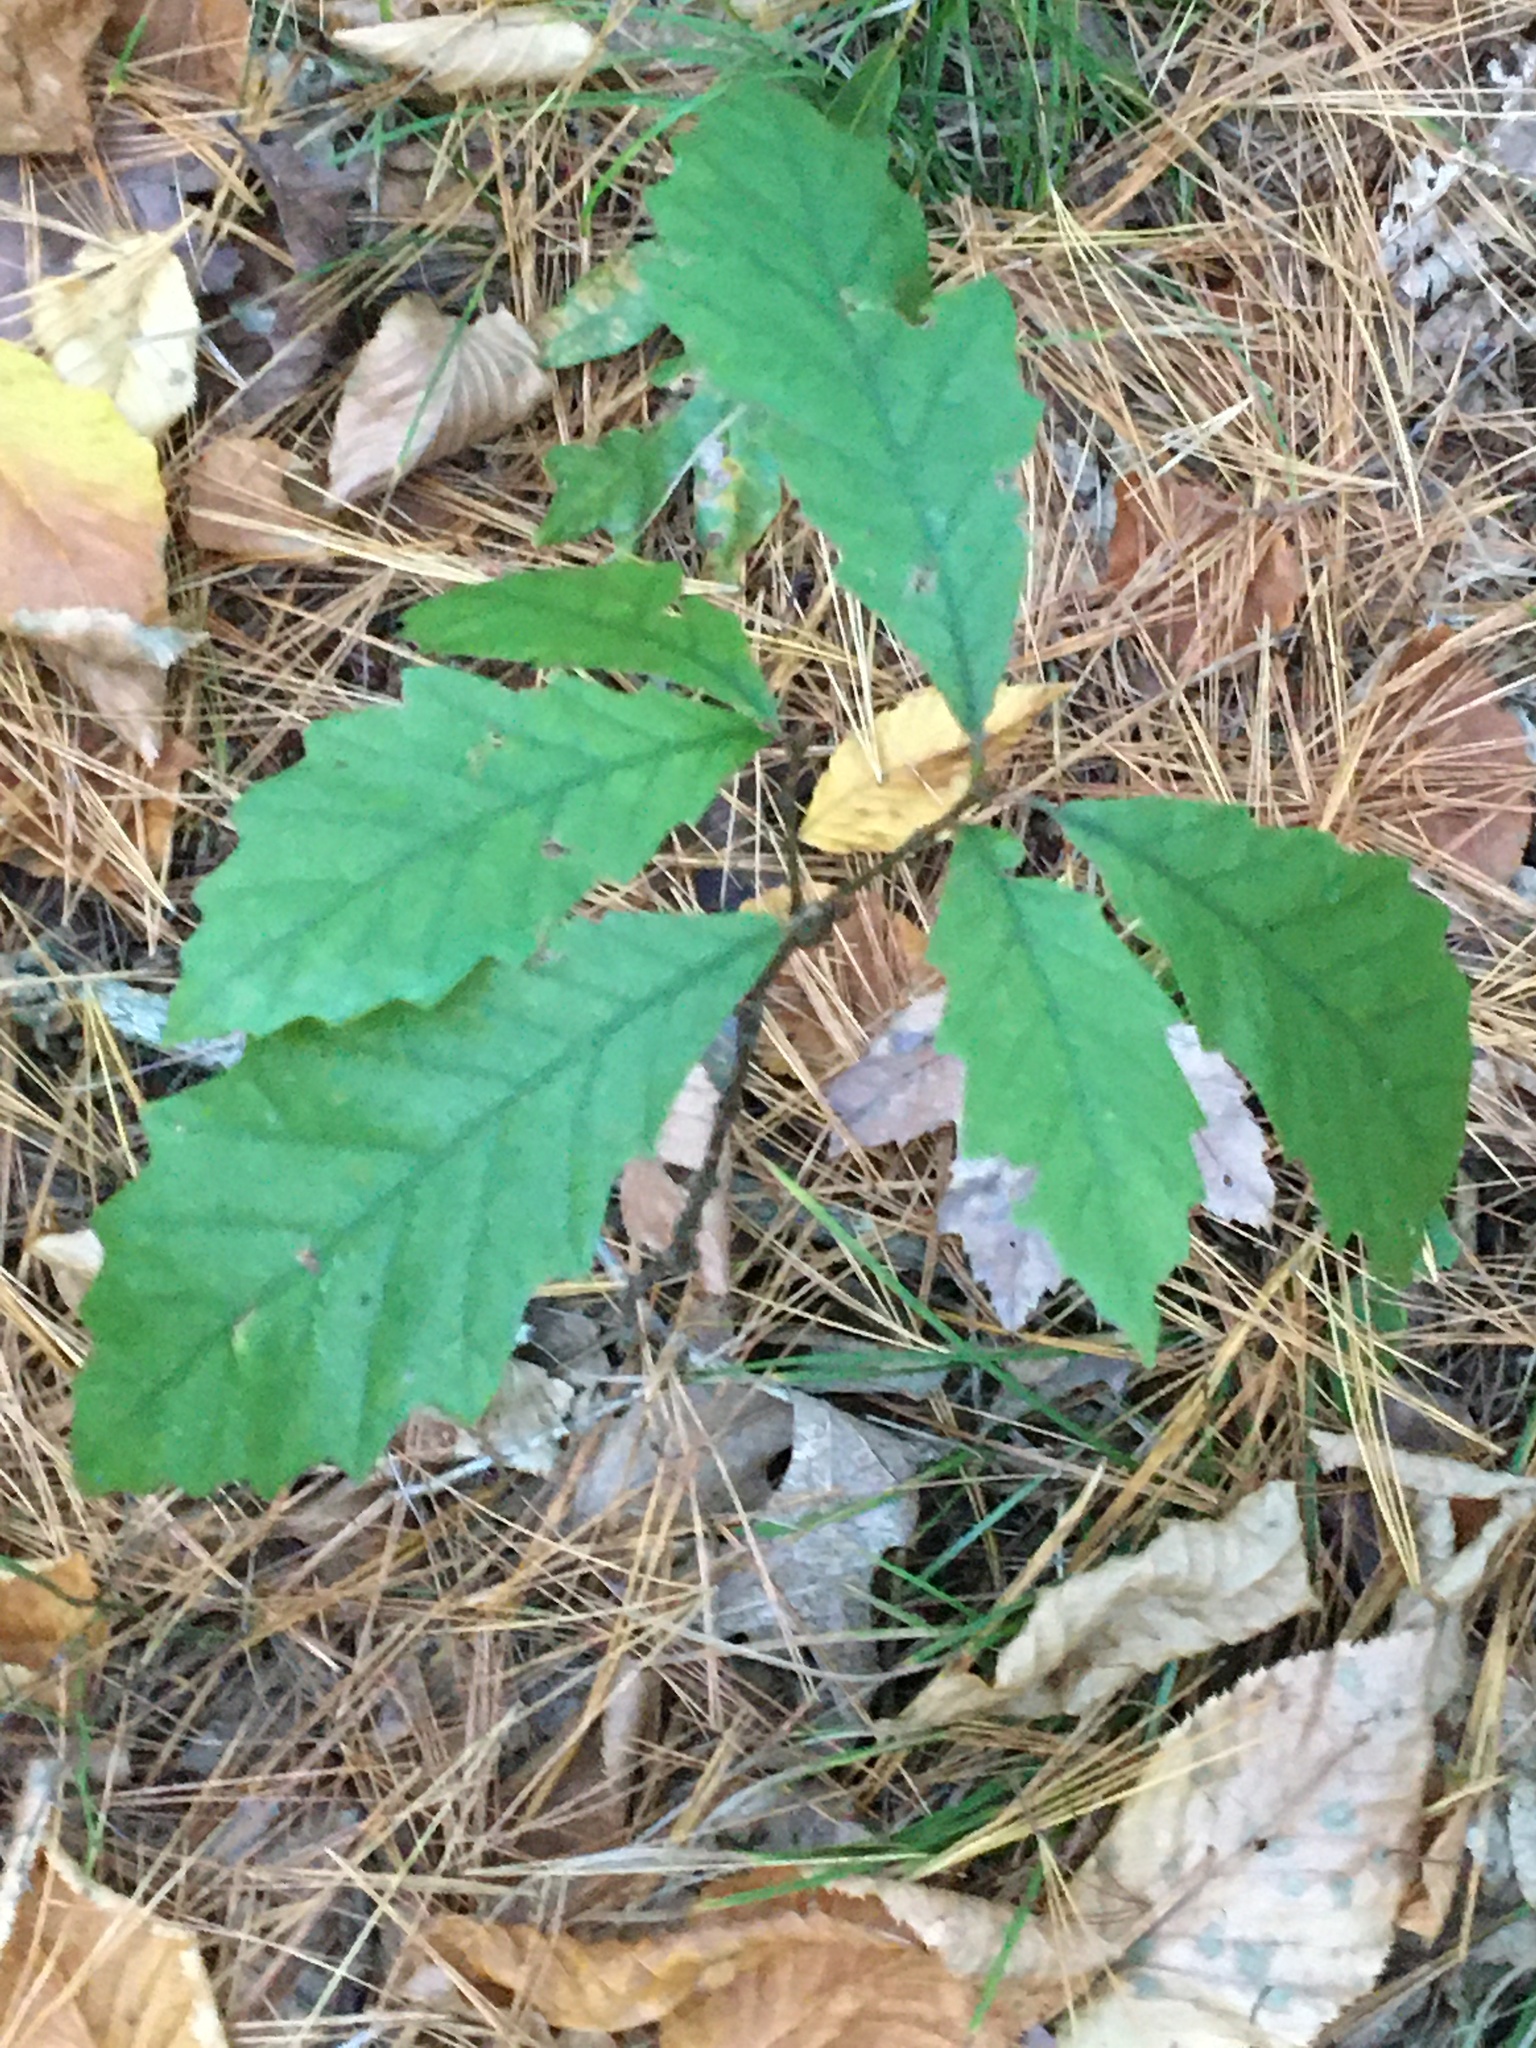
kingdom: Plantae
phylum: Tracheophyta
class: Magnoliopsida
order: Fagales
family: Fagaceae
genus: Quercus
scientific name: Quercus montana
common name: Chestnut oak
